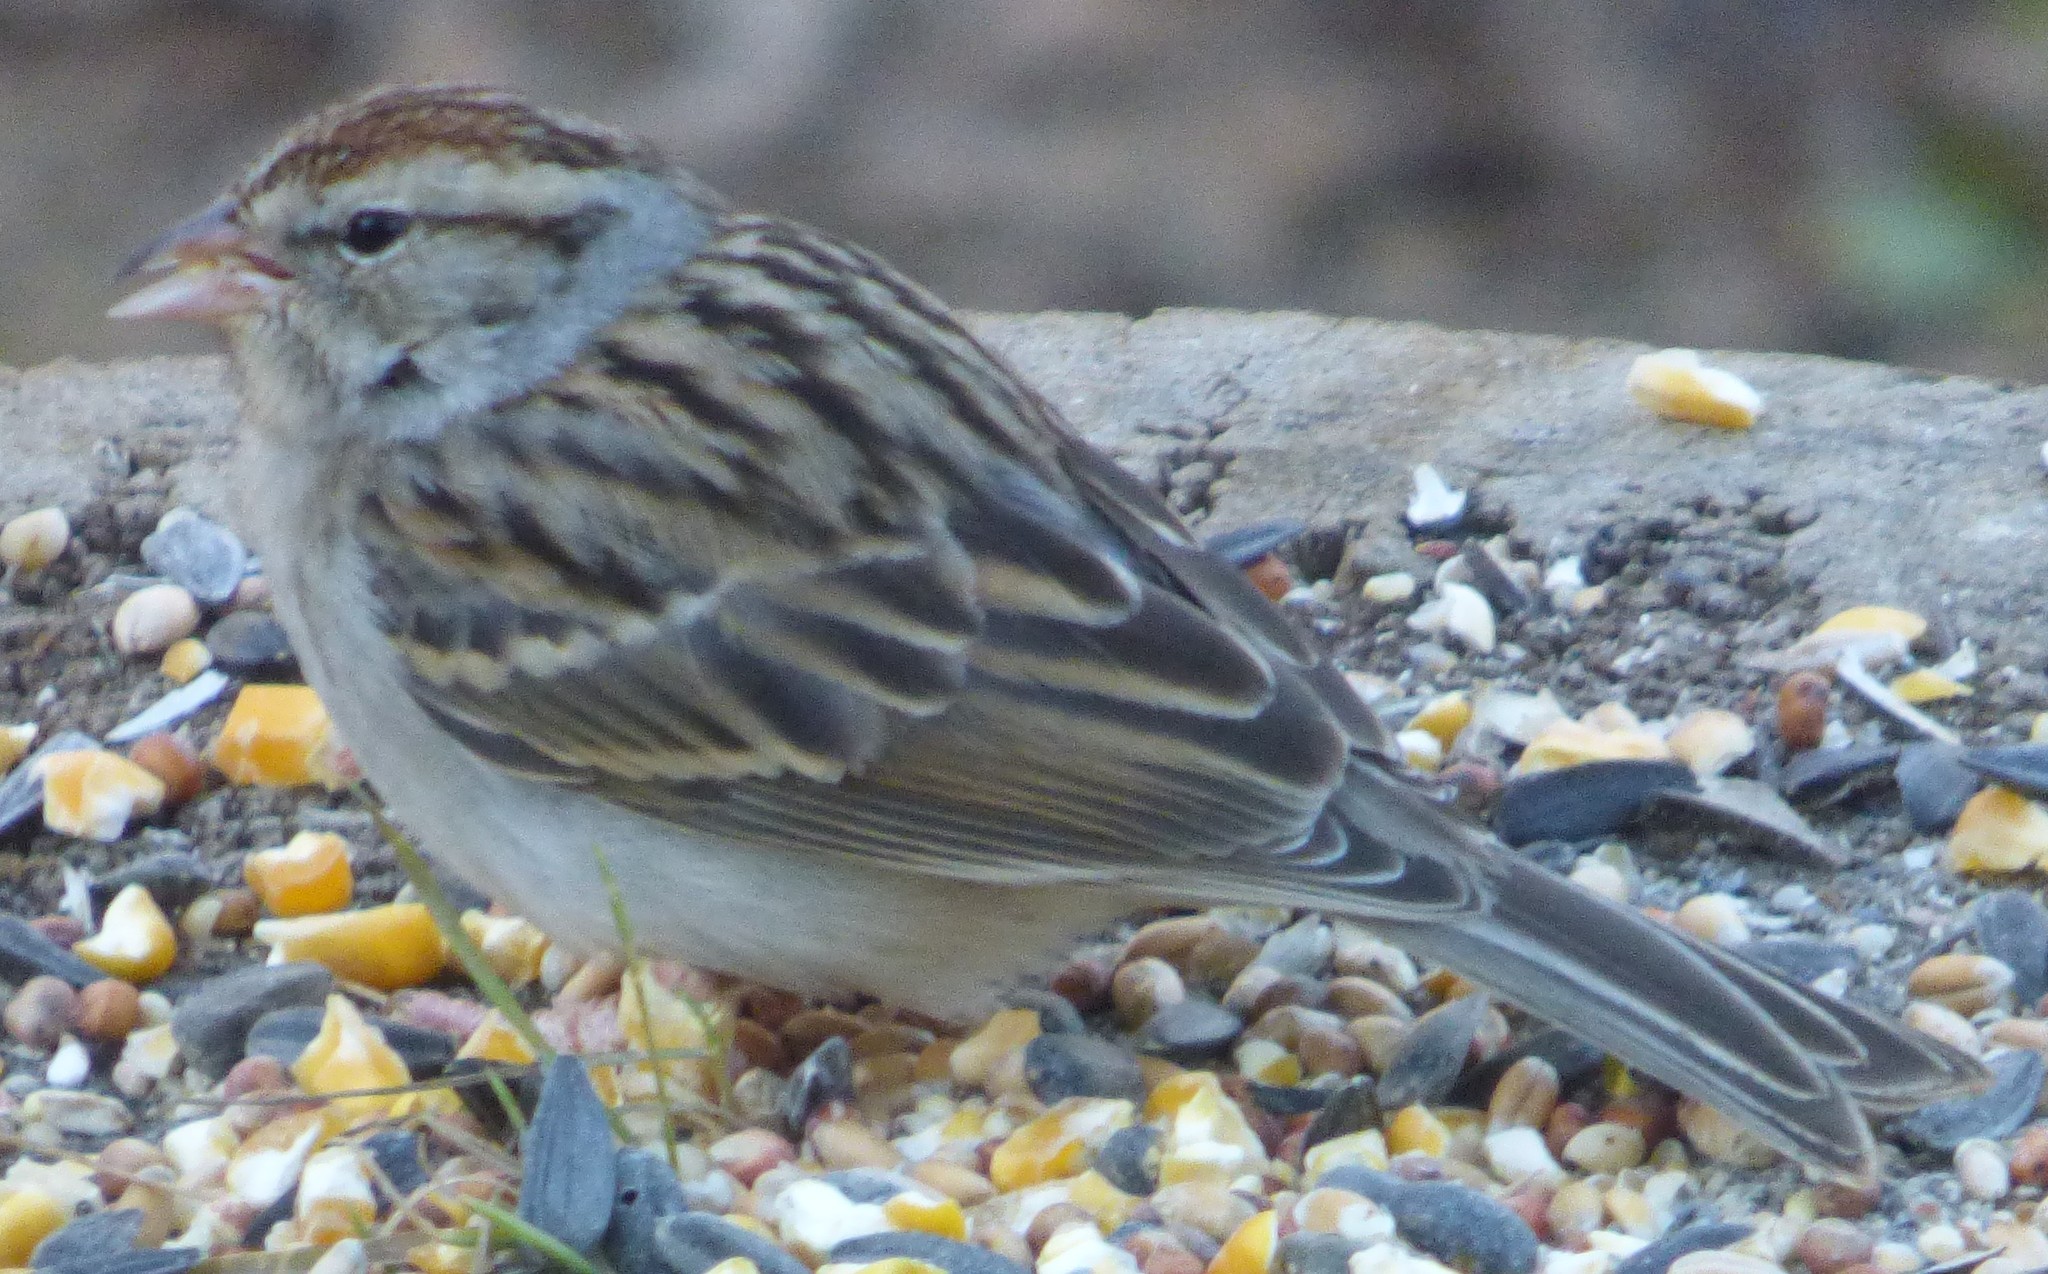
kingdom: Animalia
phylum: Chordata
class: Aves
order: Passeriformes
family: Passerellidae
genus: Spizella
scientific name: Spizella passerina
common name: Chipping sparrow
